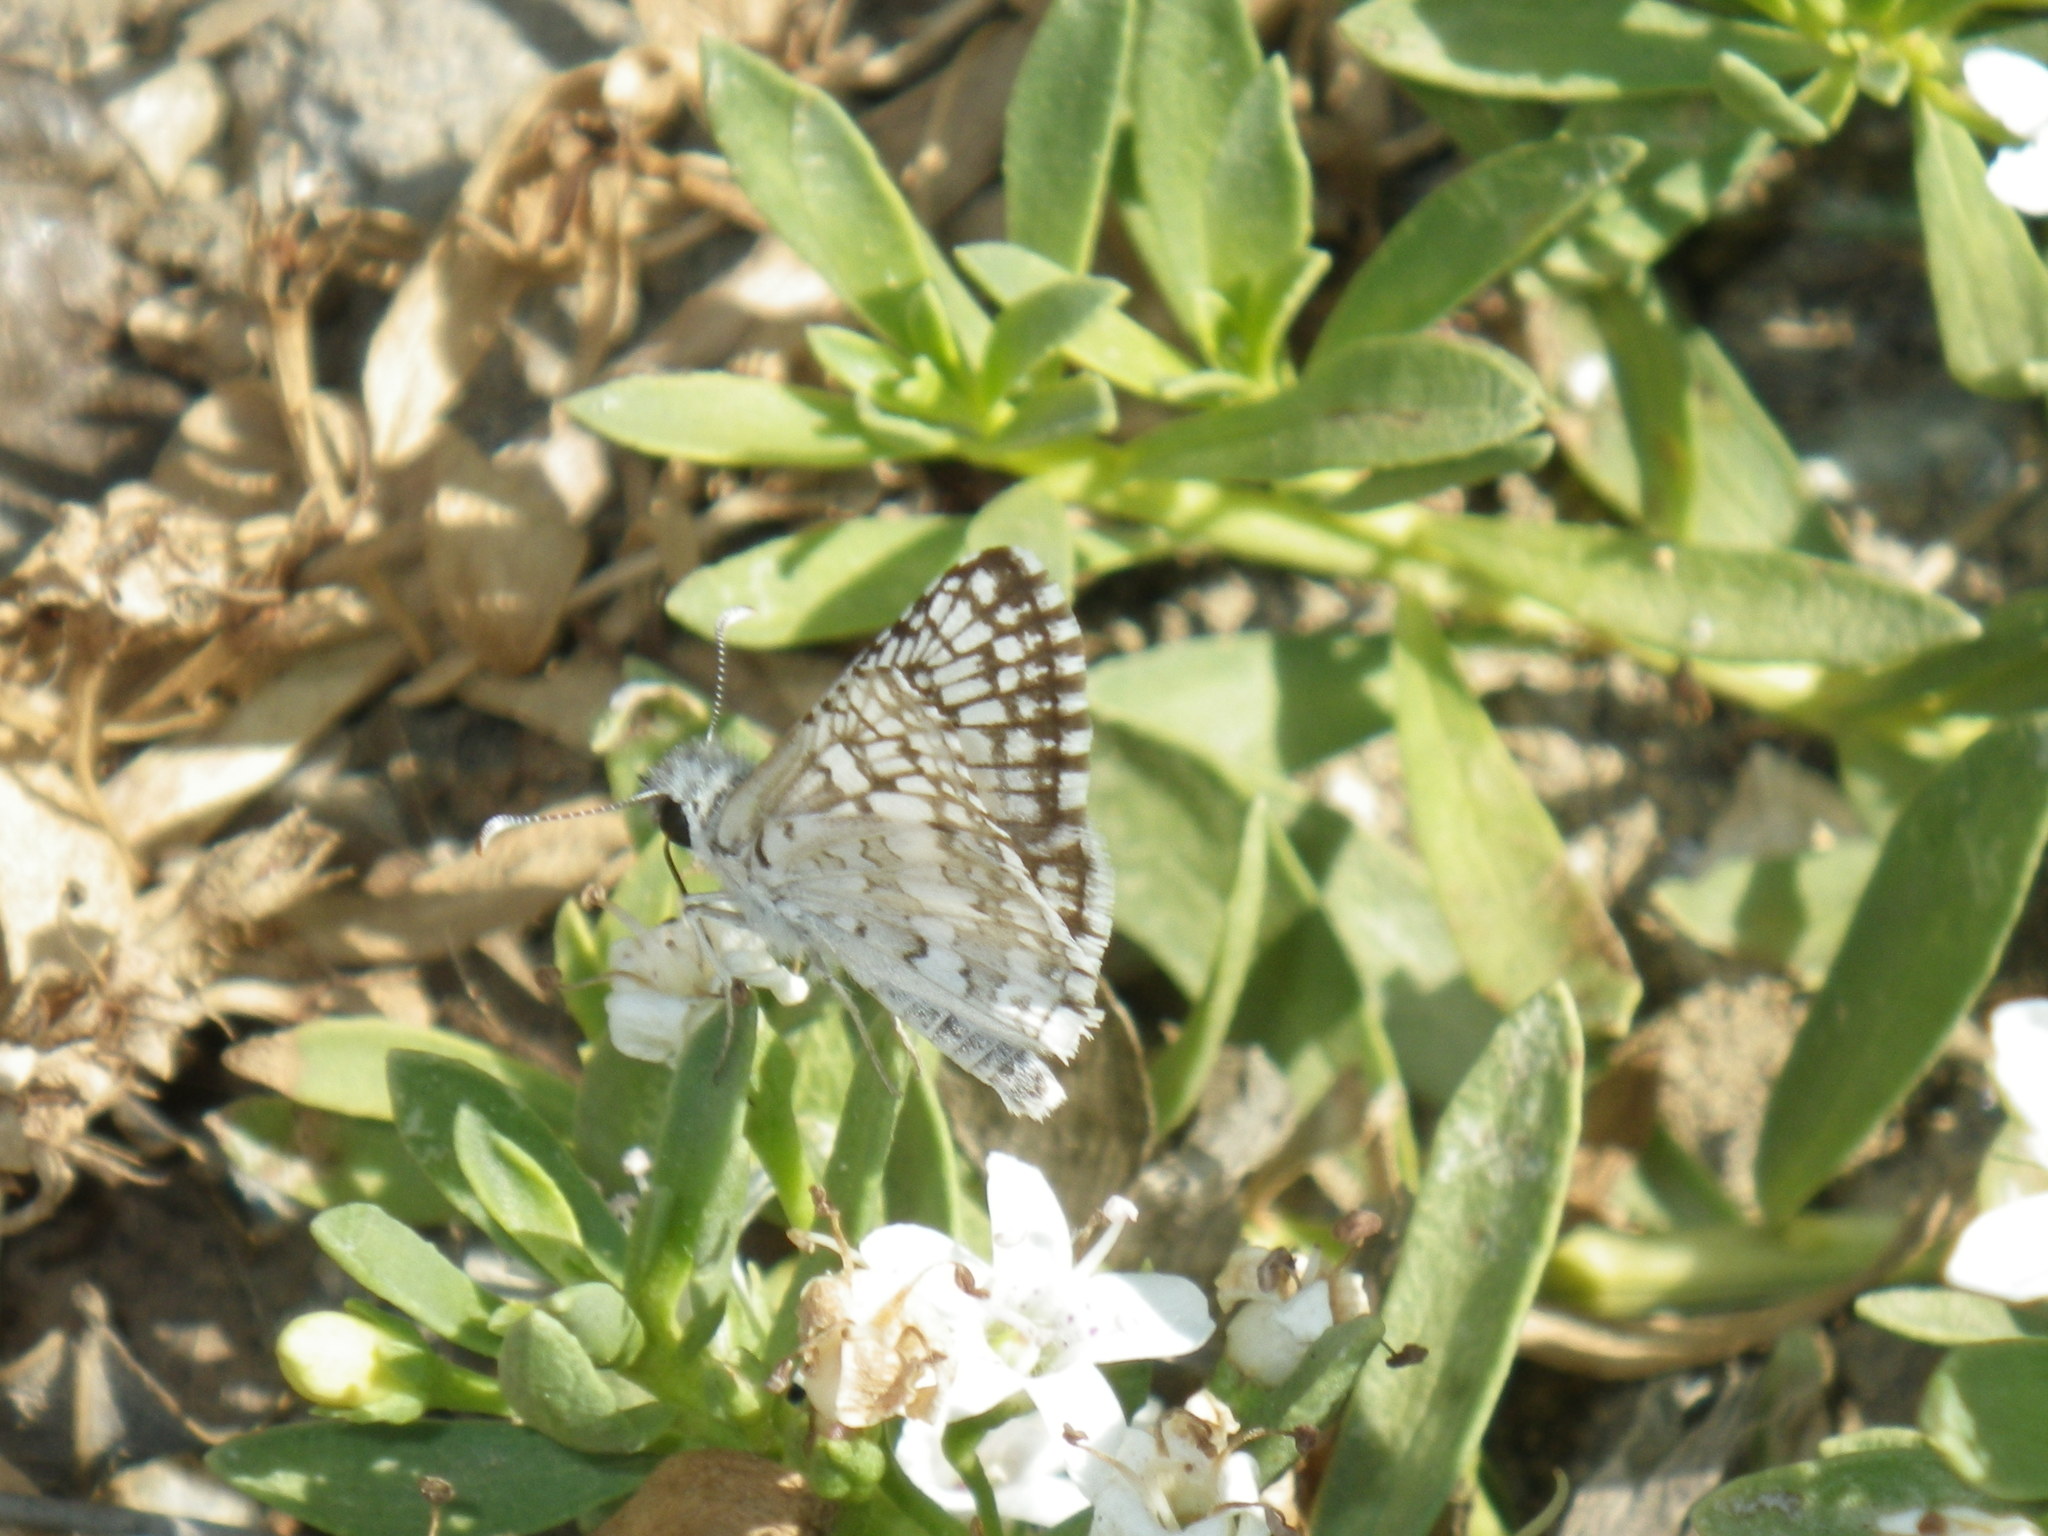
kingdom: Animalia
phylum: Arthropoda
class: Insecta
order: Lepidoptera
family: Hesperiidae
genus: Burnsius
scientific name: Burnsius albezens
